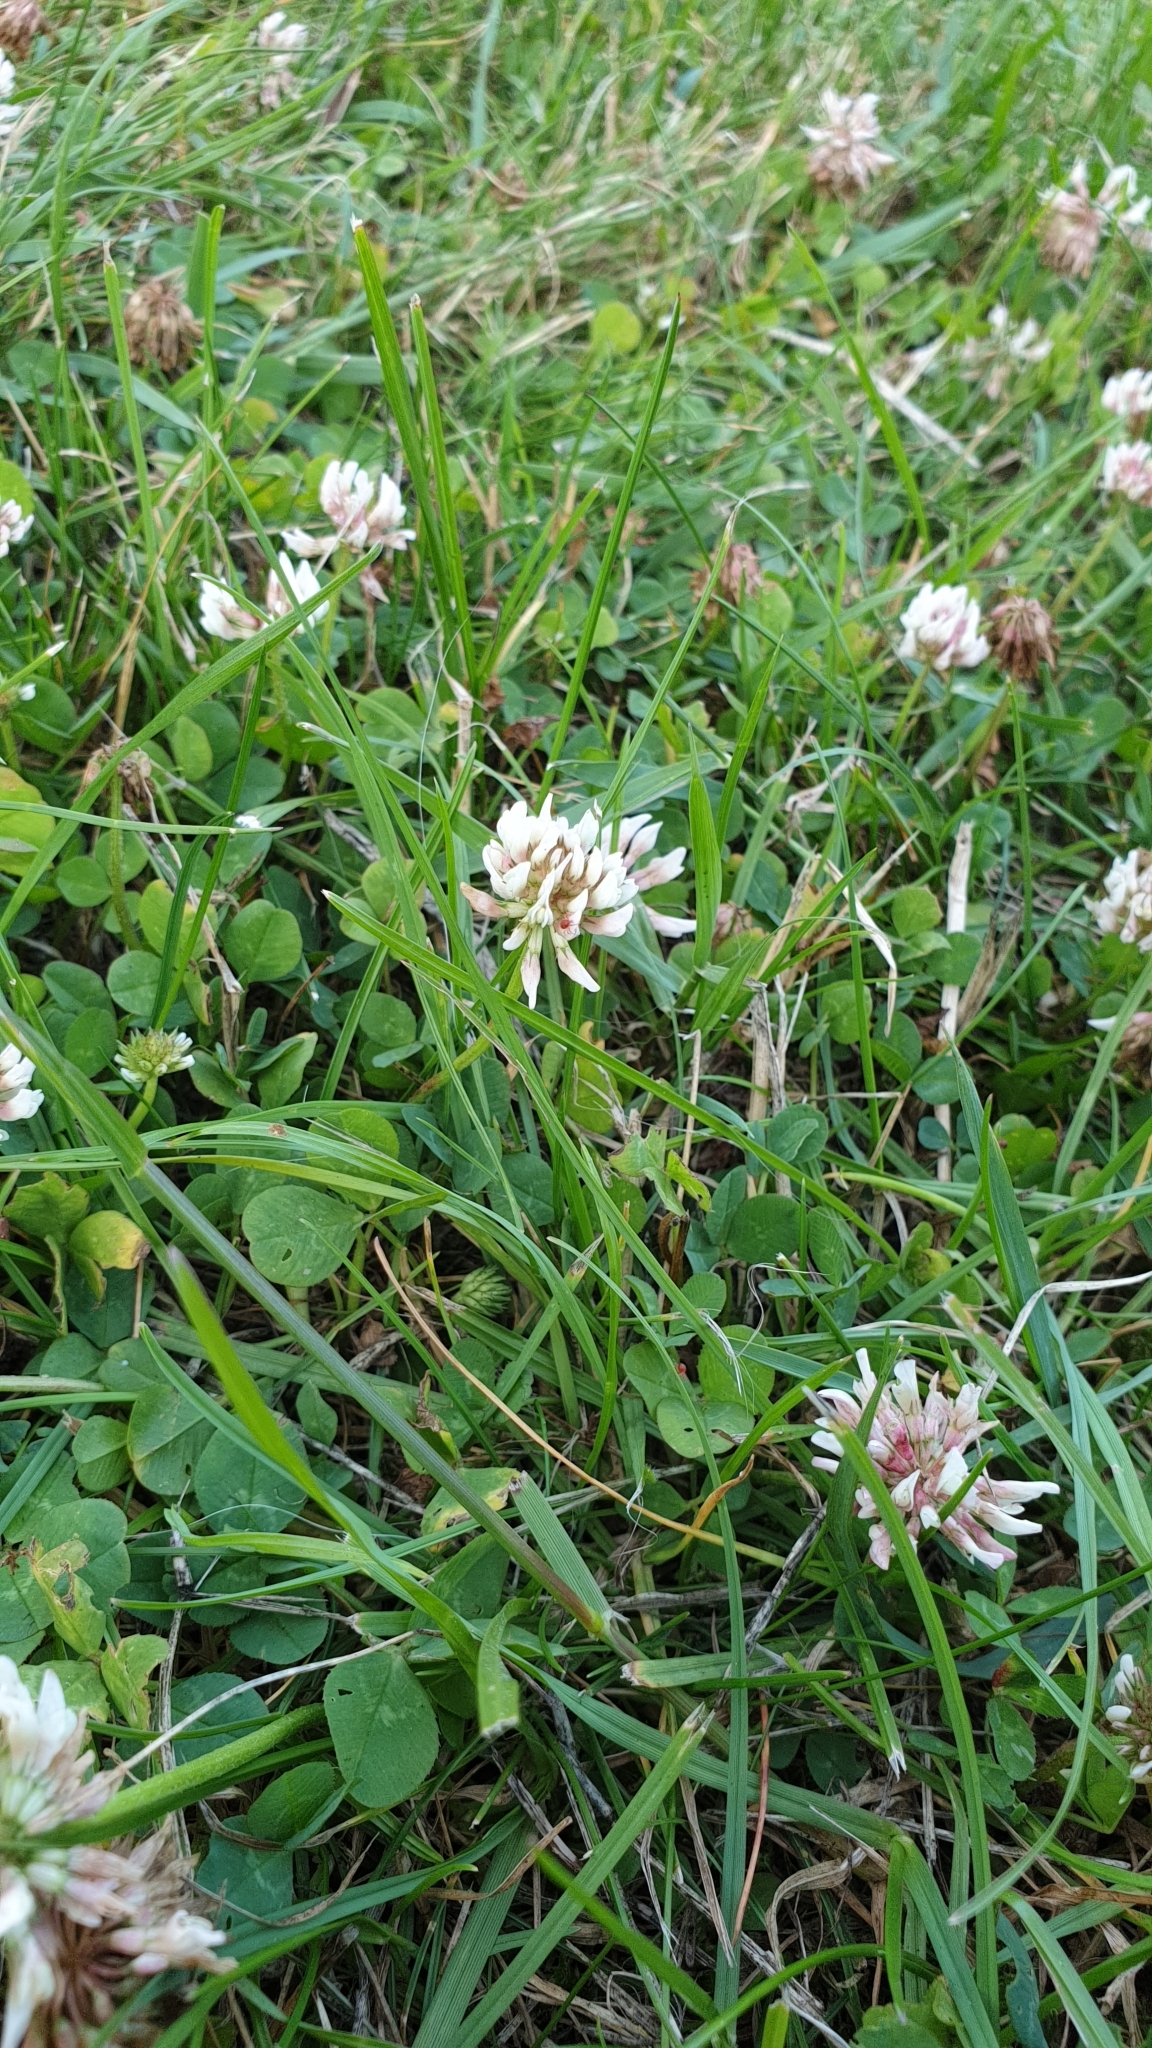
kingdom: Plantae
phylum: Tracheophyta
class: Magnoliopsida
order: Fabales
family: Fabaceae
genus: Trifolium
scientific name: Trifolium repens
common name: White clover
